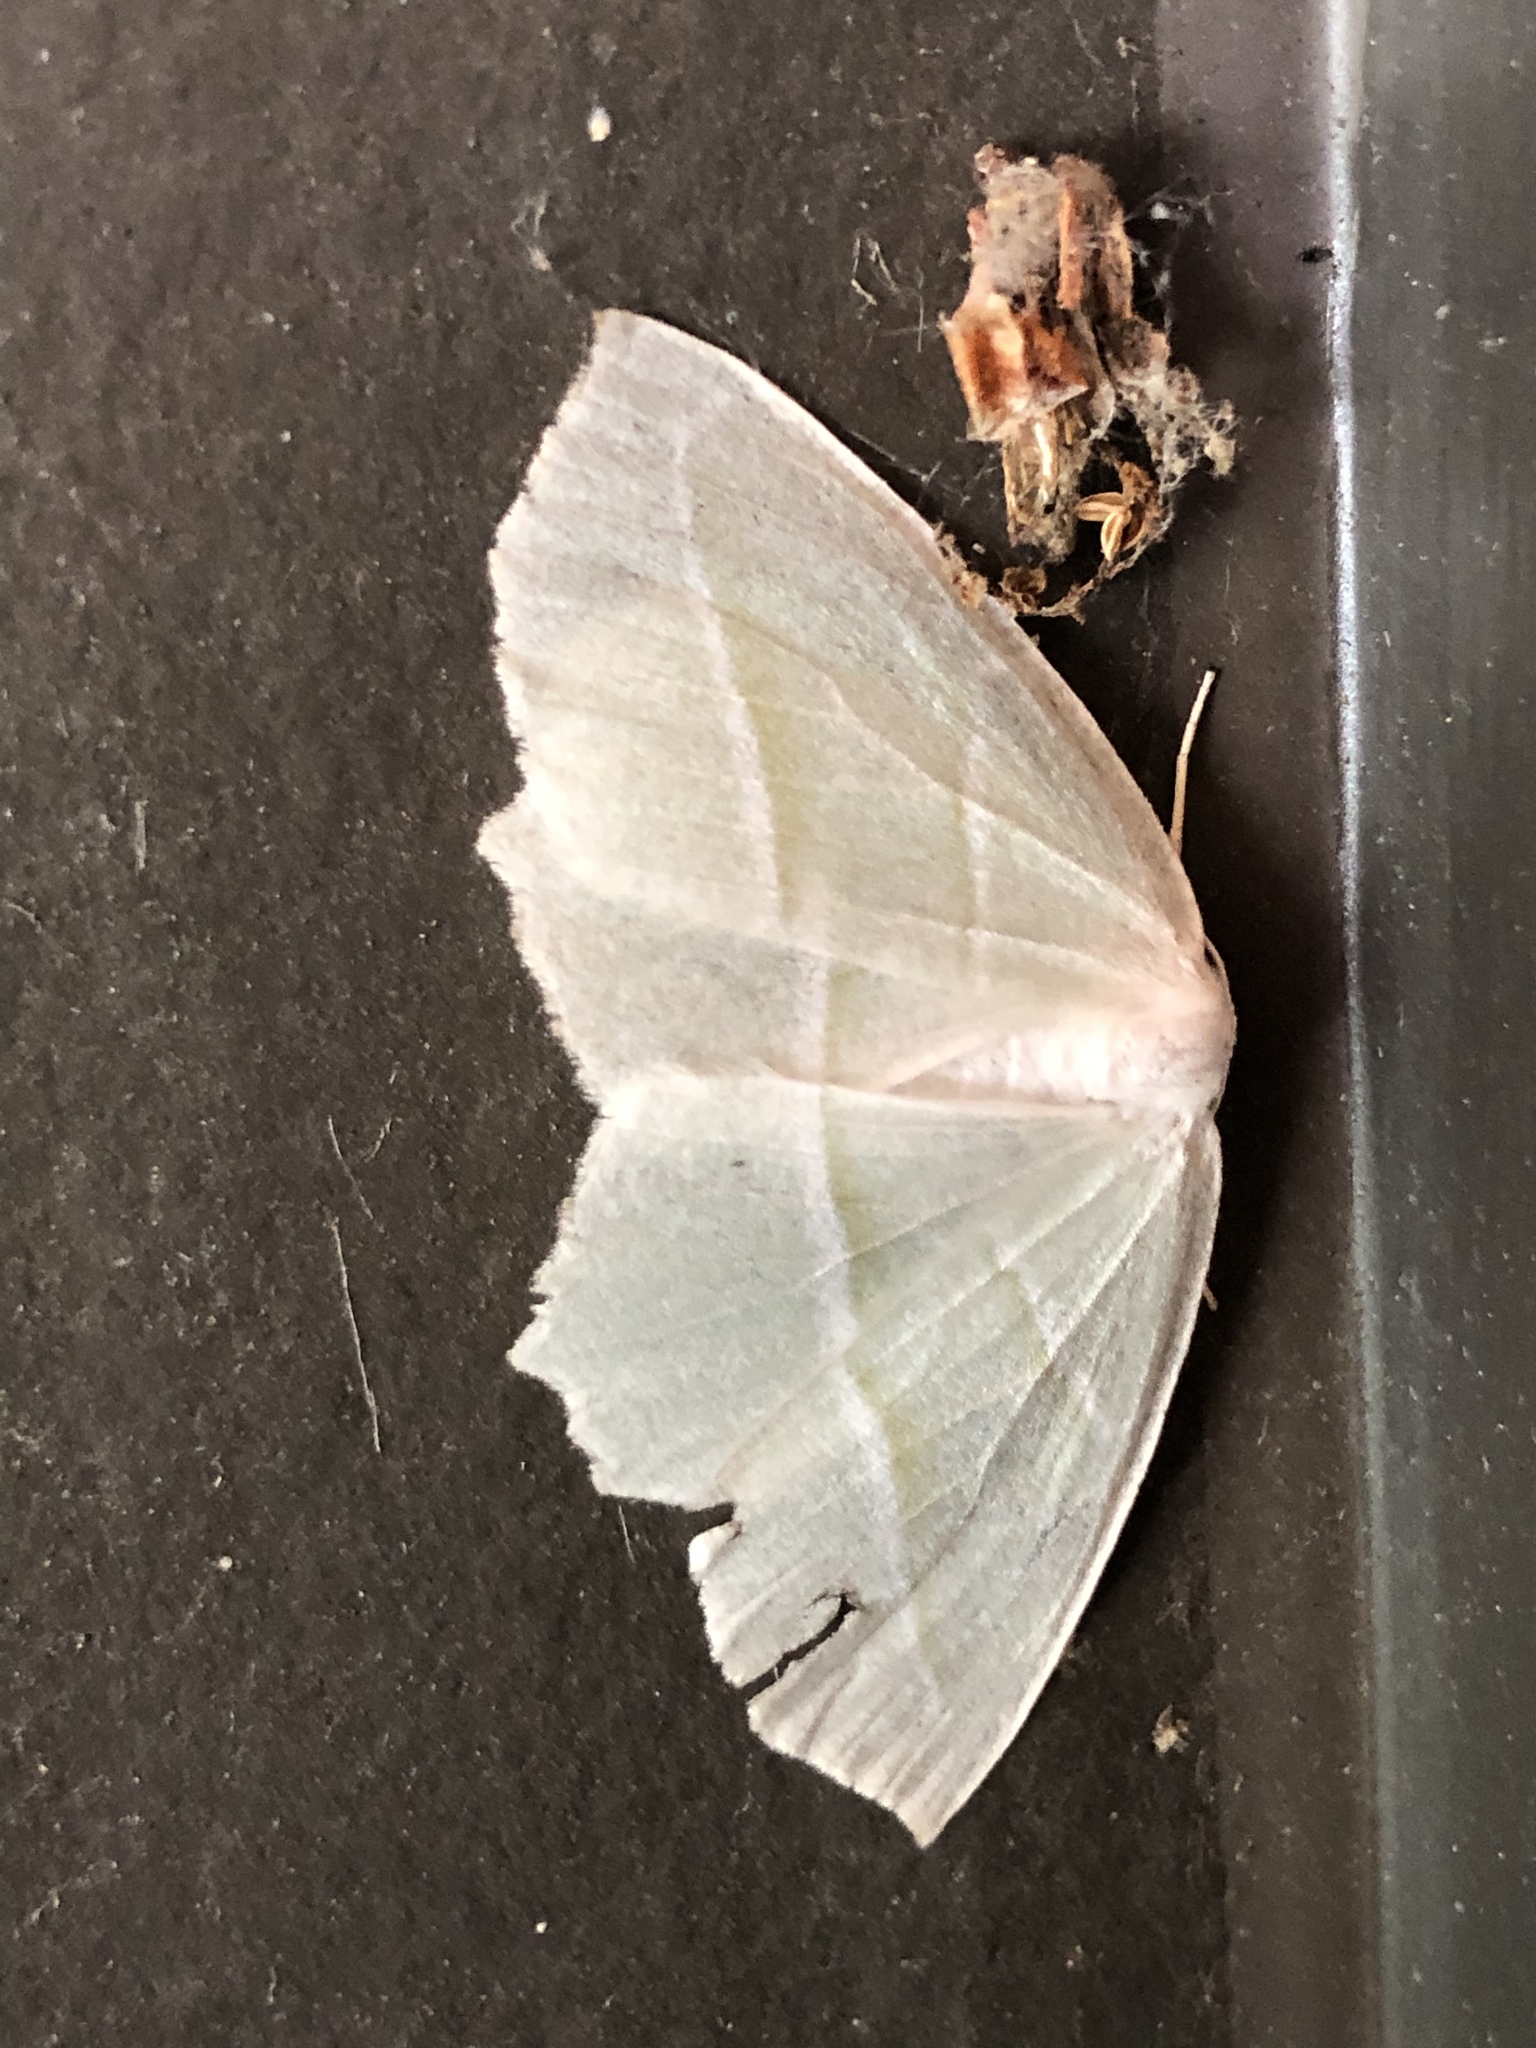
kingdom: Animalia
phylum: Arthropoda
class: Insecta
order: Lepidoptera
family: Geometridae
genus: Campaea
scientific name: Campaea perlata
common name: Fringed looper
